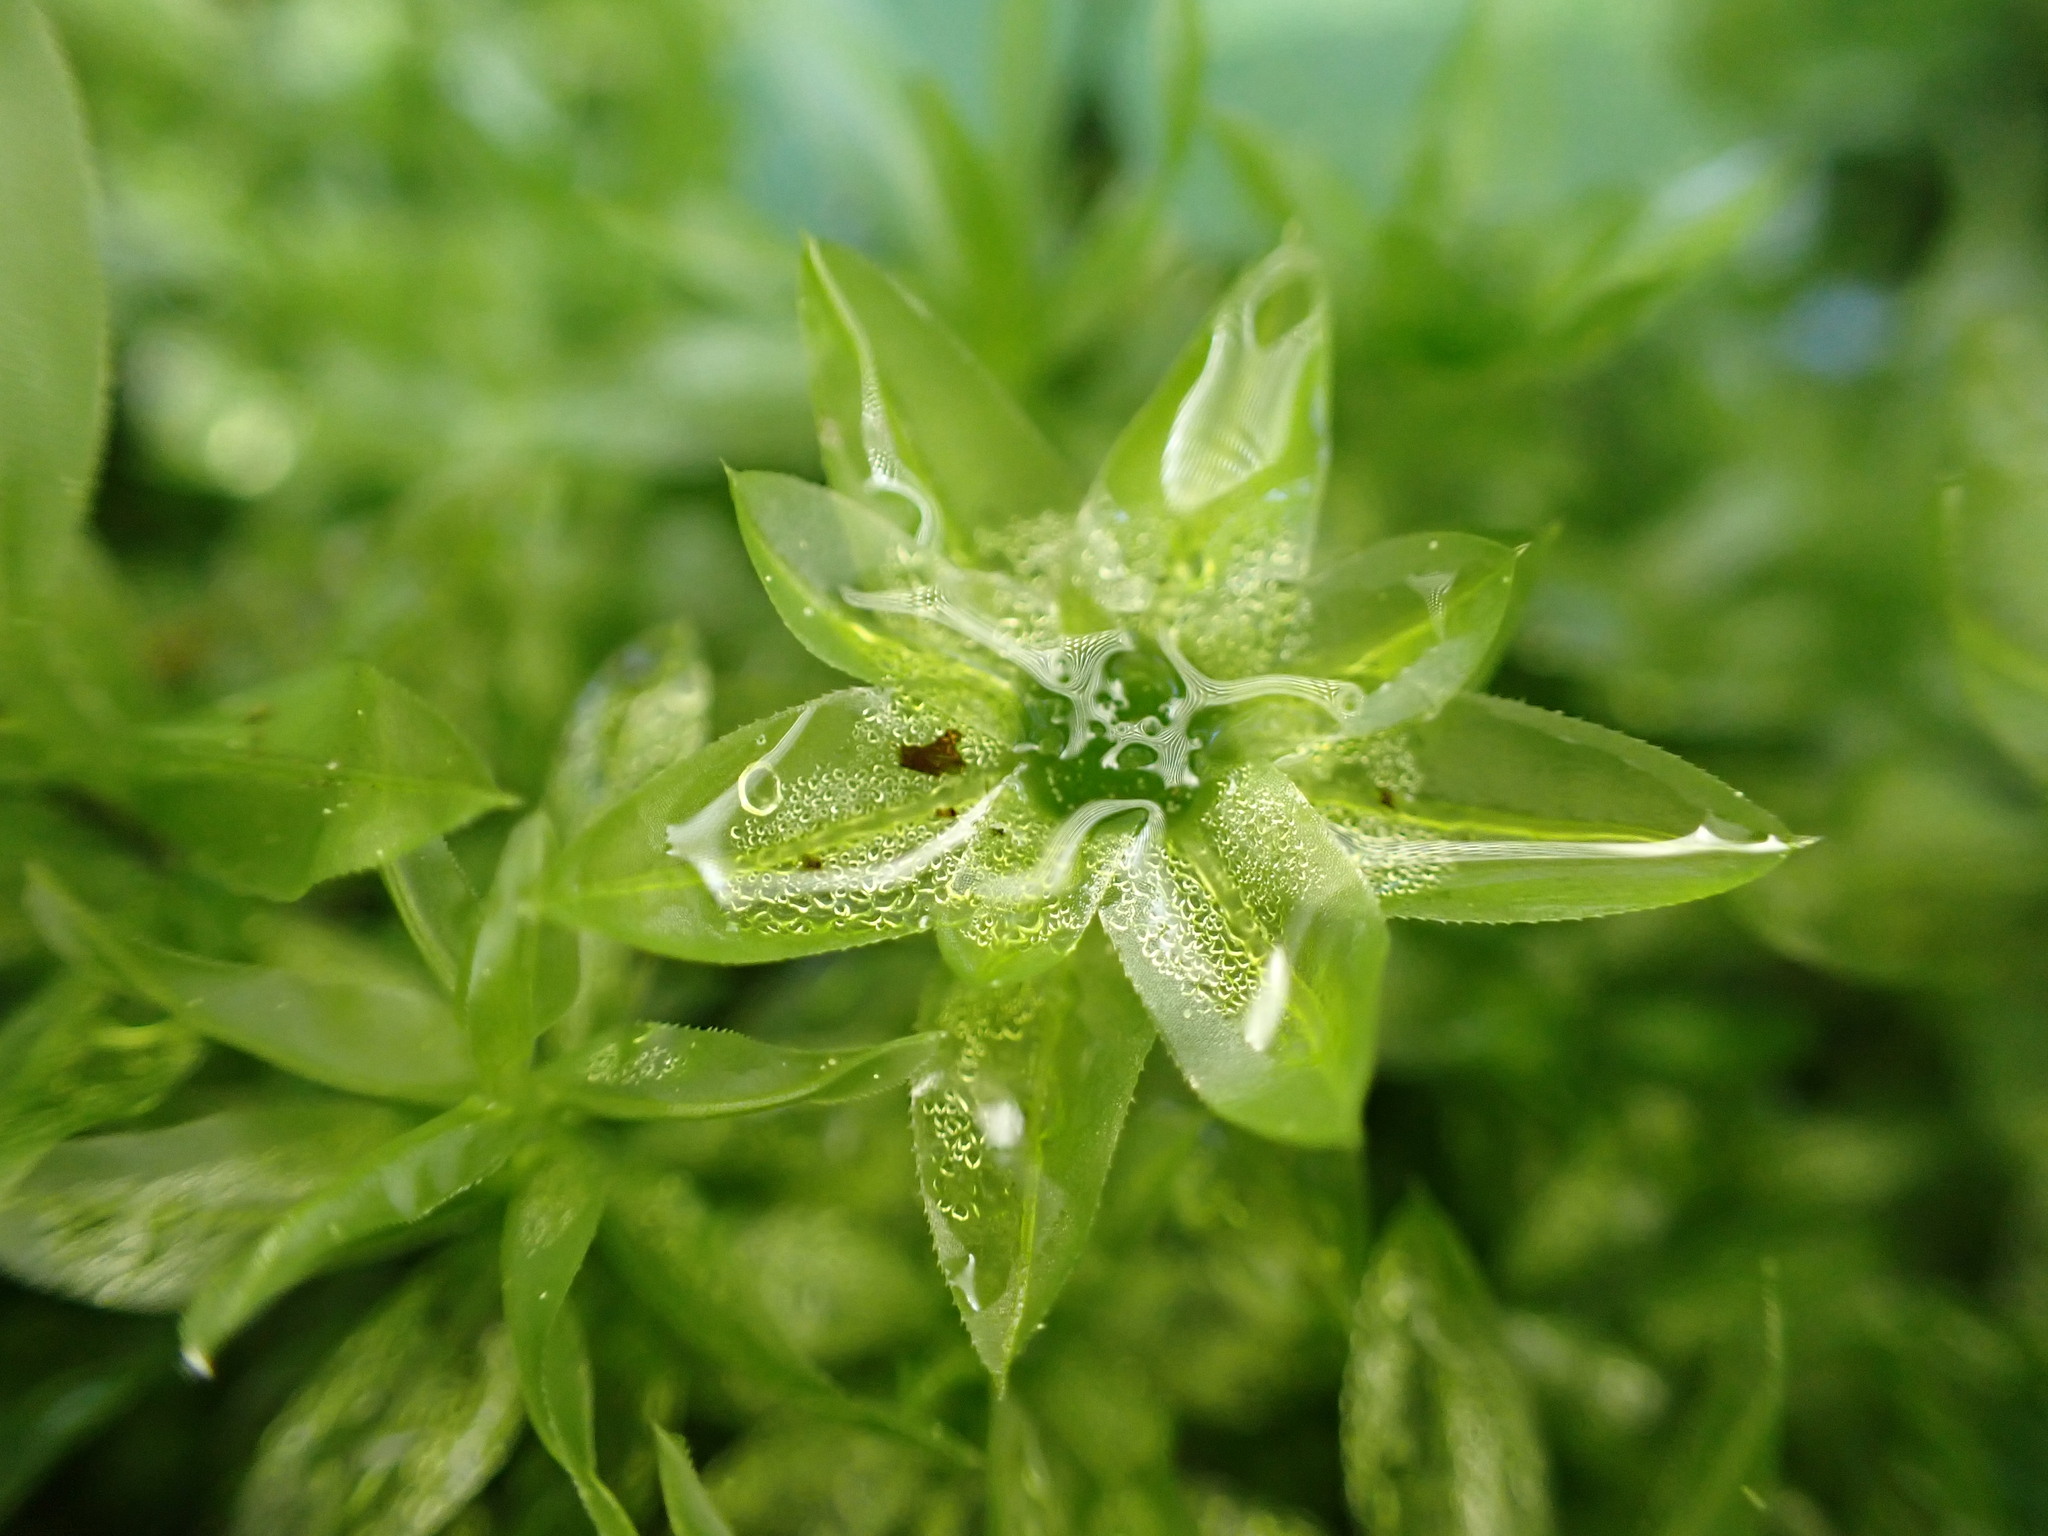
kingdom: Plantae
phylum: Bryophyta
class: Bryopsida
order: Bryales
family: Mniaceae
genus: Plagiomnium
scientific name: Plagiomnium insigne
